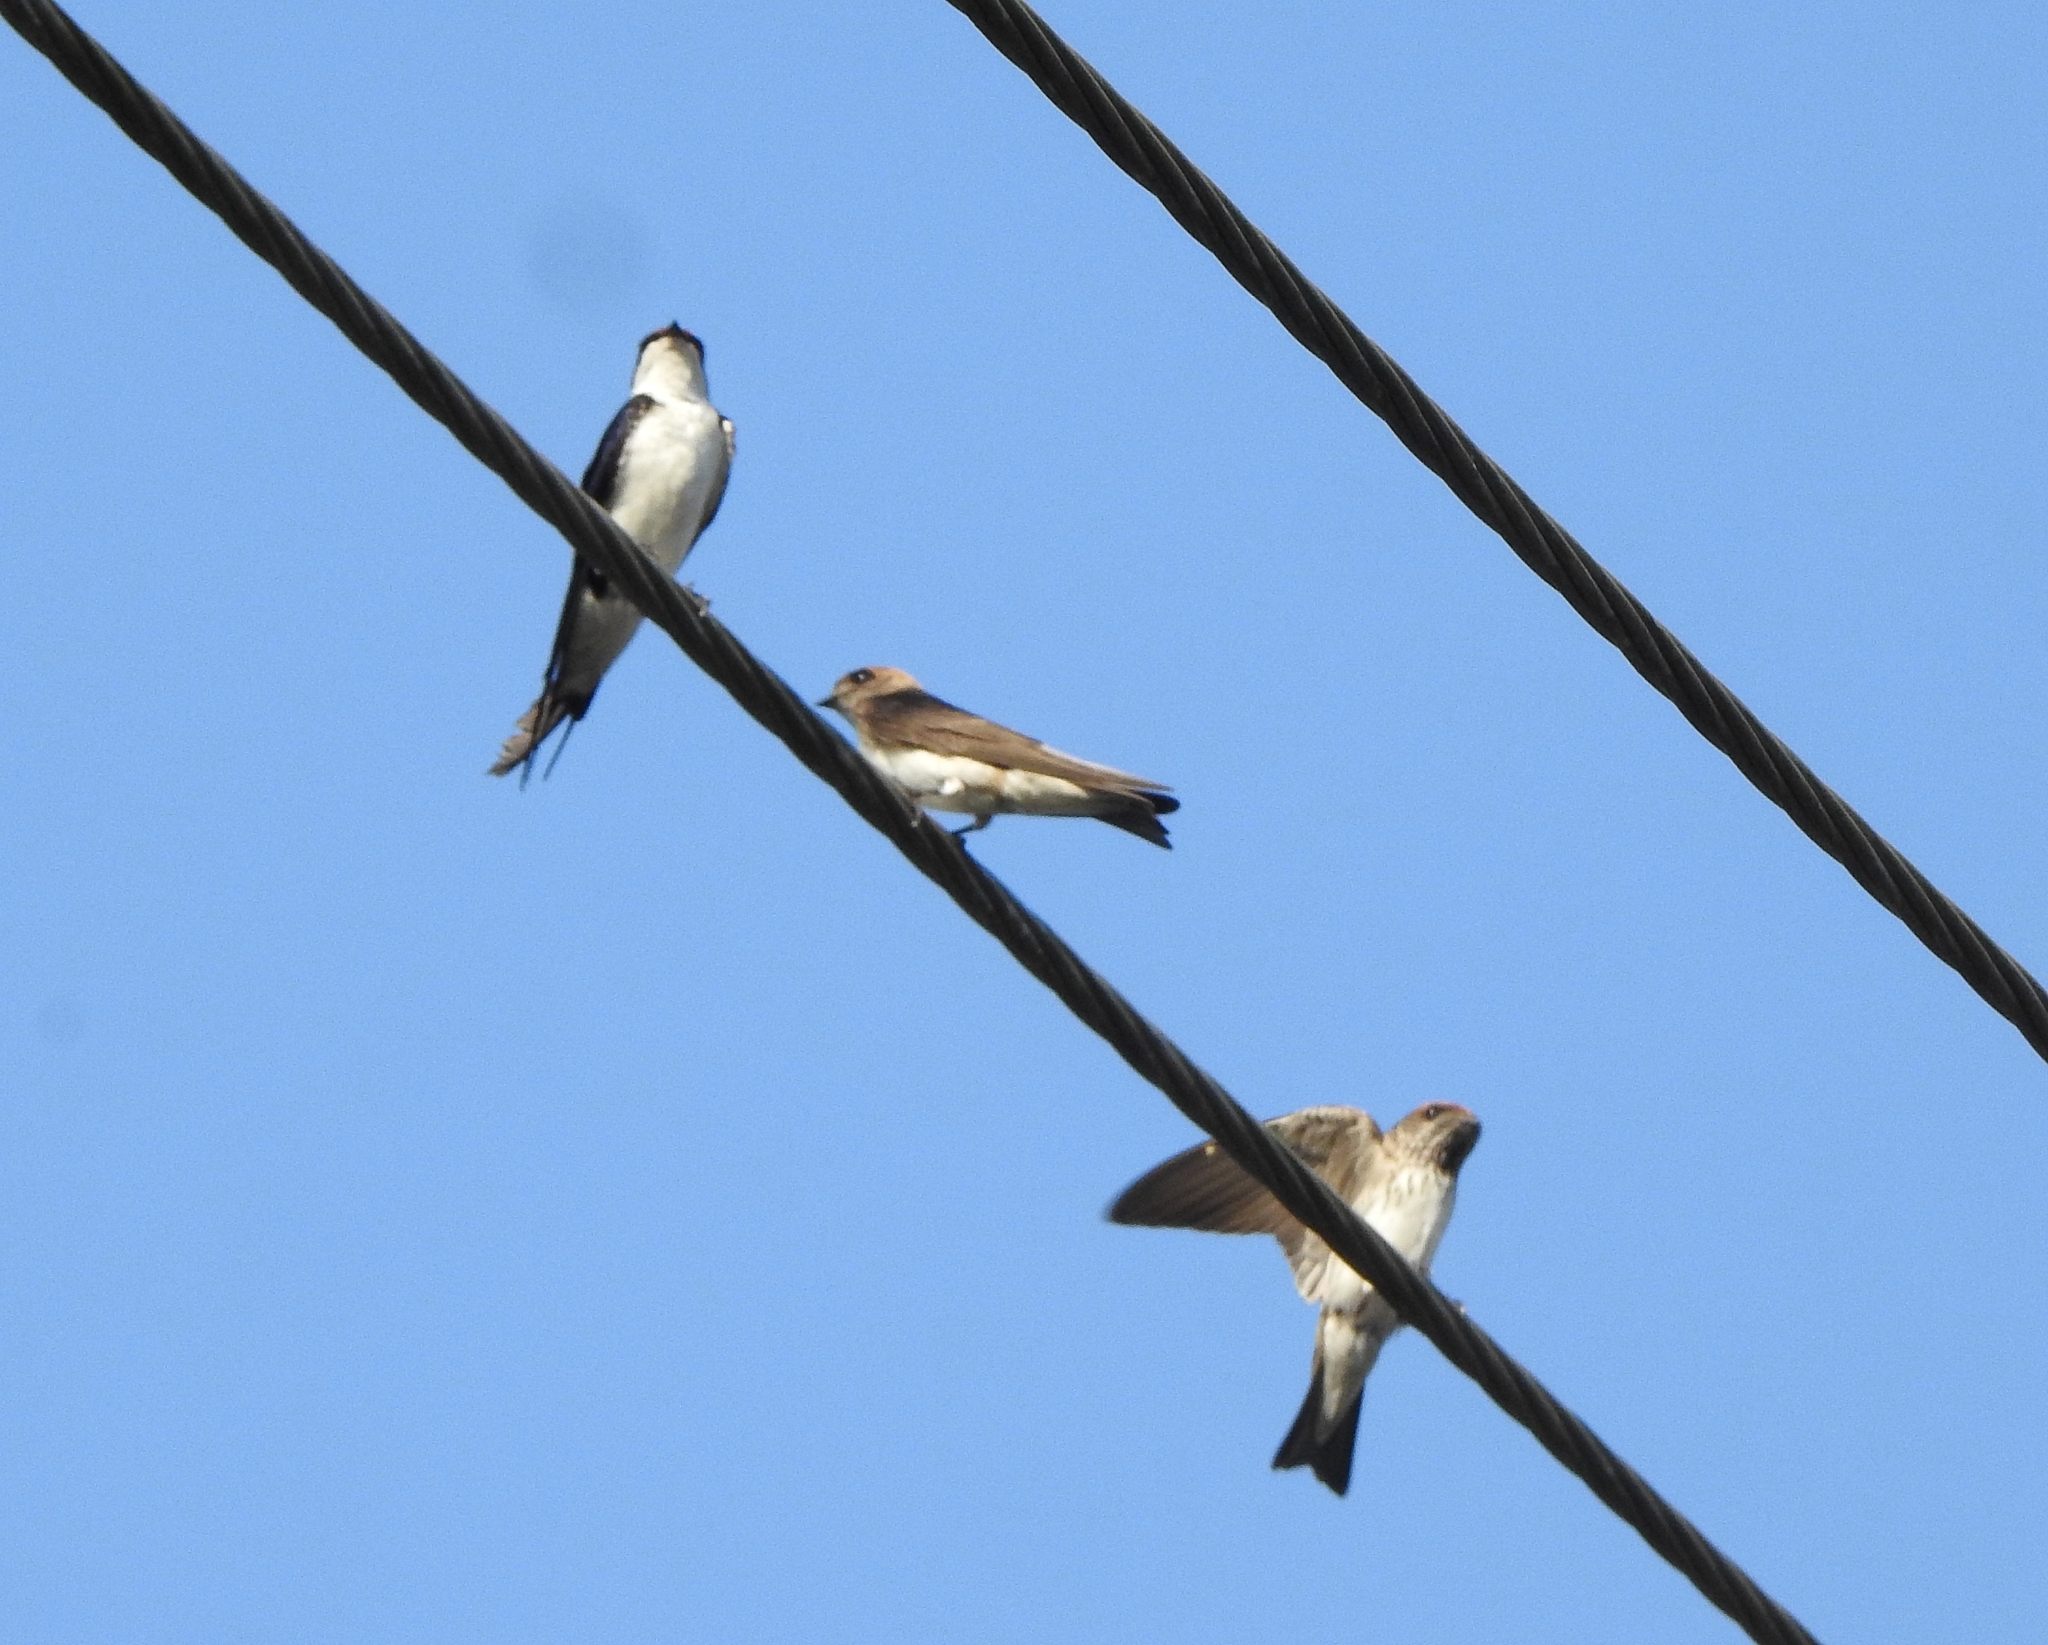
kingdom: Animalia
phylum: Chordata
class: Aves
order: Passeriformes
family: Hirundinidae
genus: Hirundo
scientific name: Hirundo smithii
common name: Wire-tailed swallow
